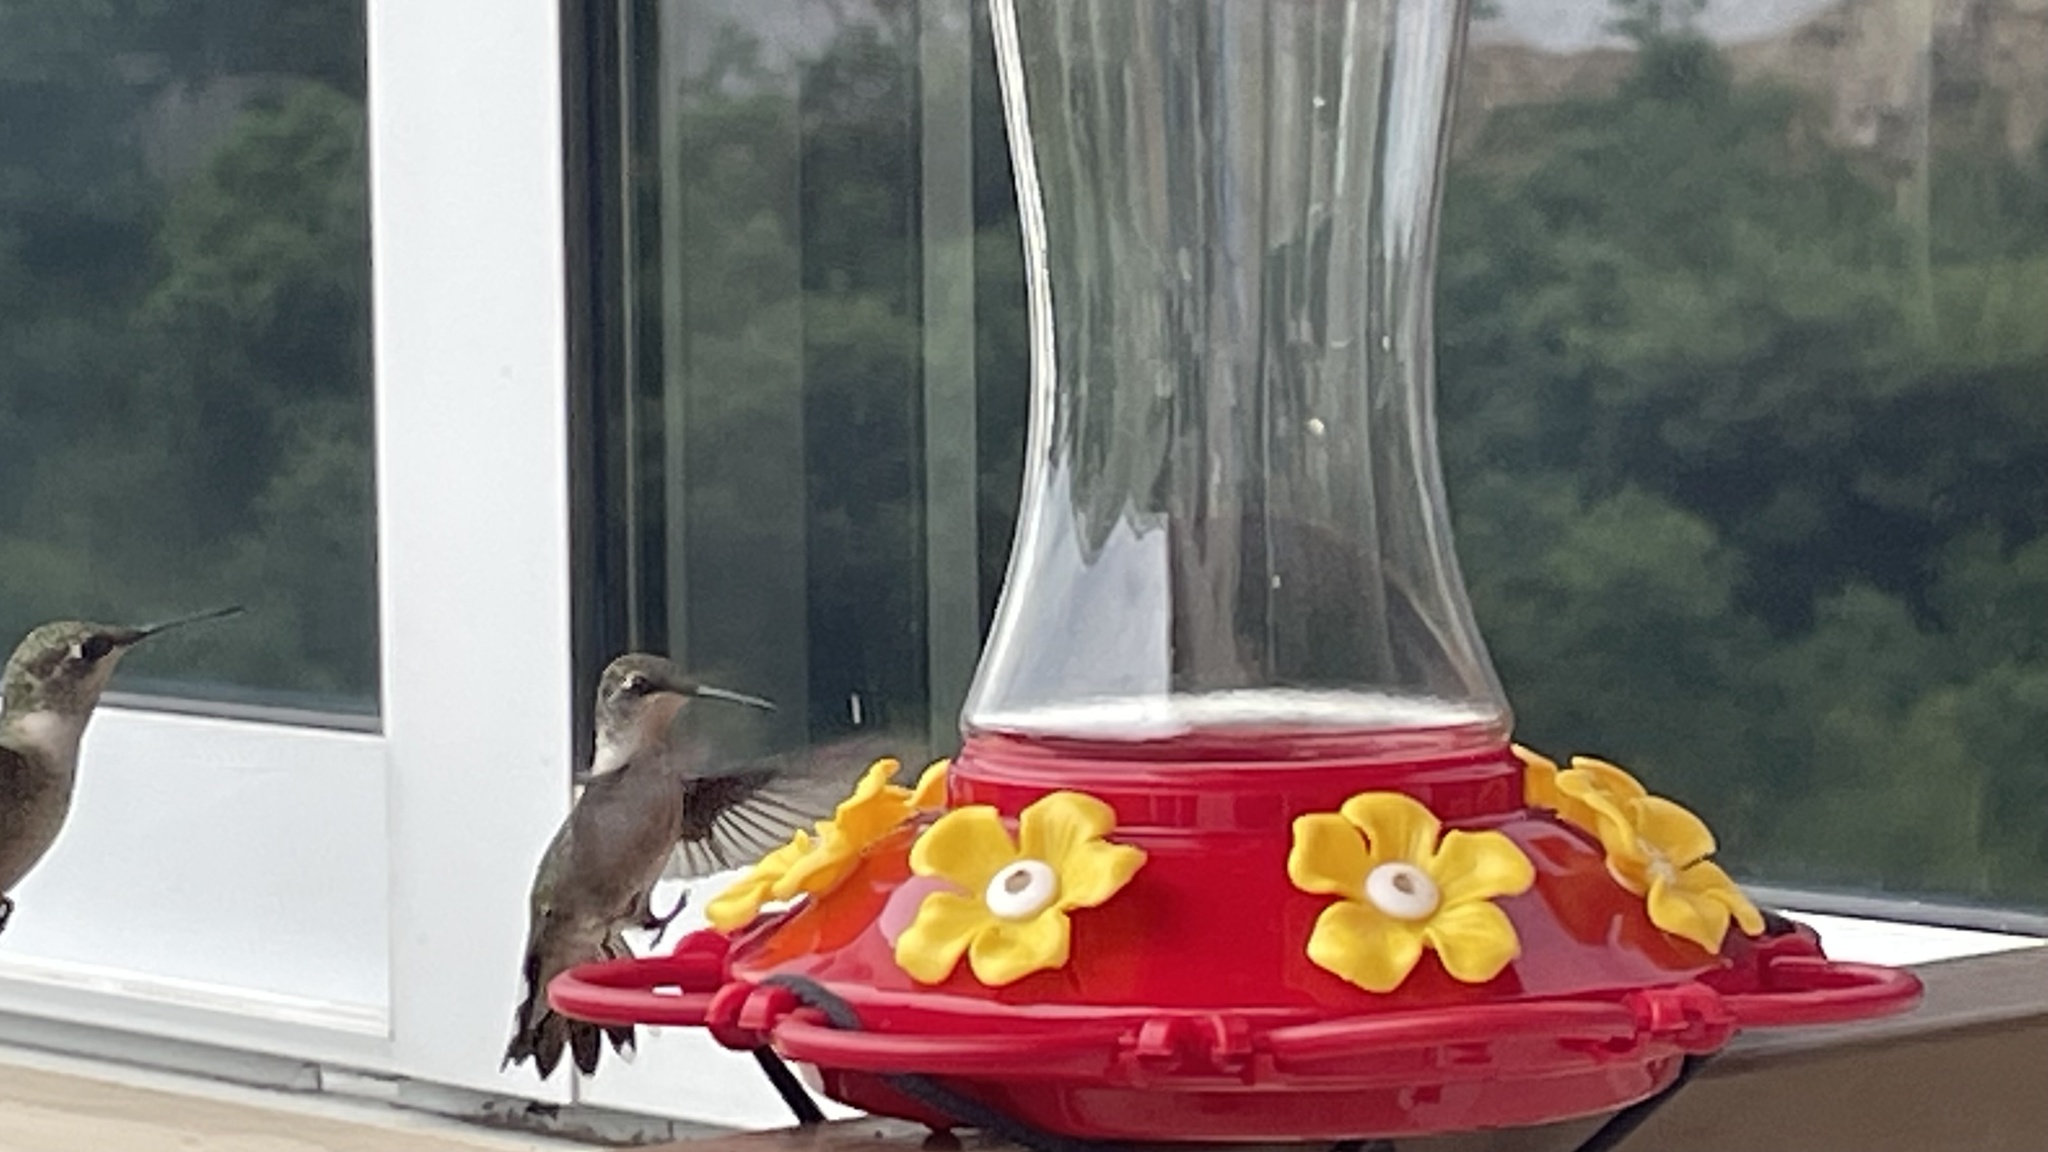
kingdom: Animalia
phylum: Chordata
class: Aves
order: Apodiformes
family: Trochilidae
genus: Archilochus
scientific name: Archilochus colubris
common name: Ruby-throated hummingbird
